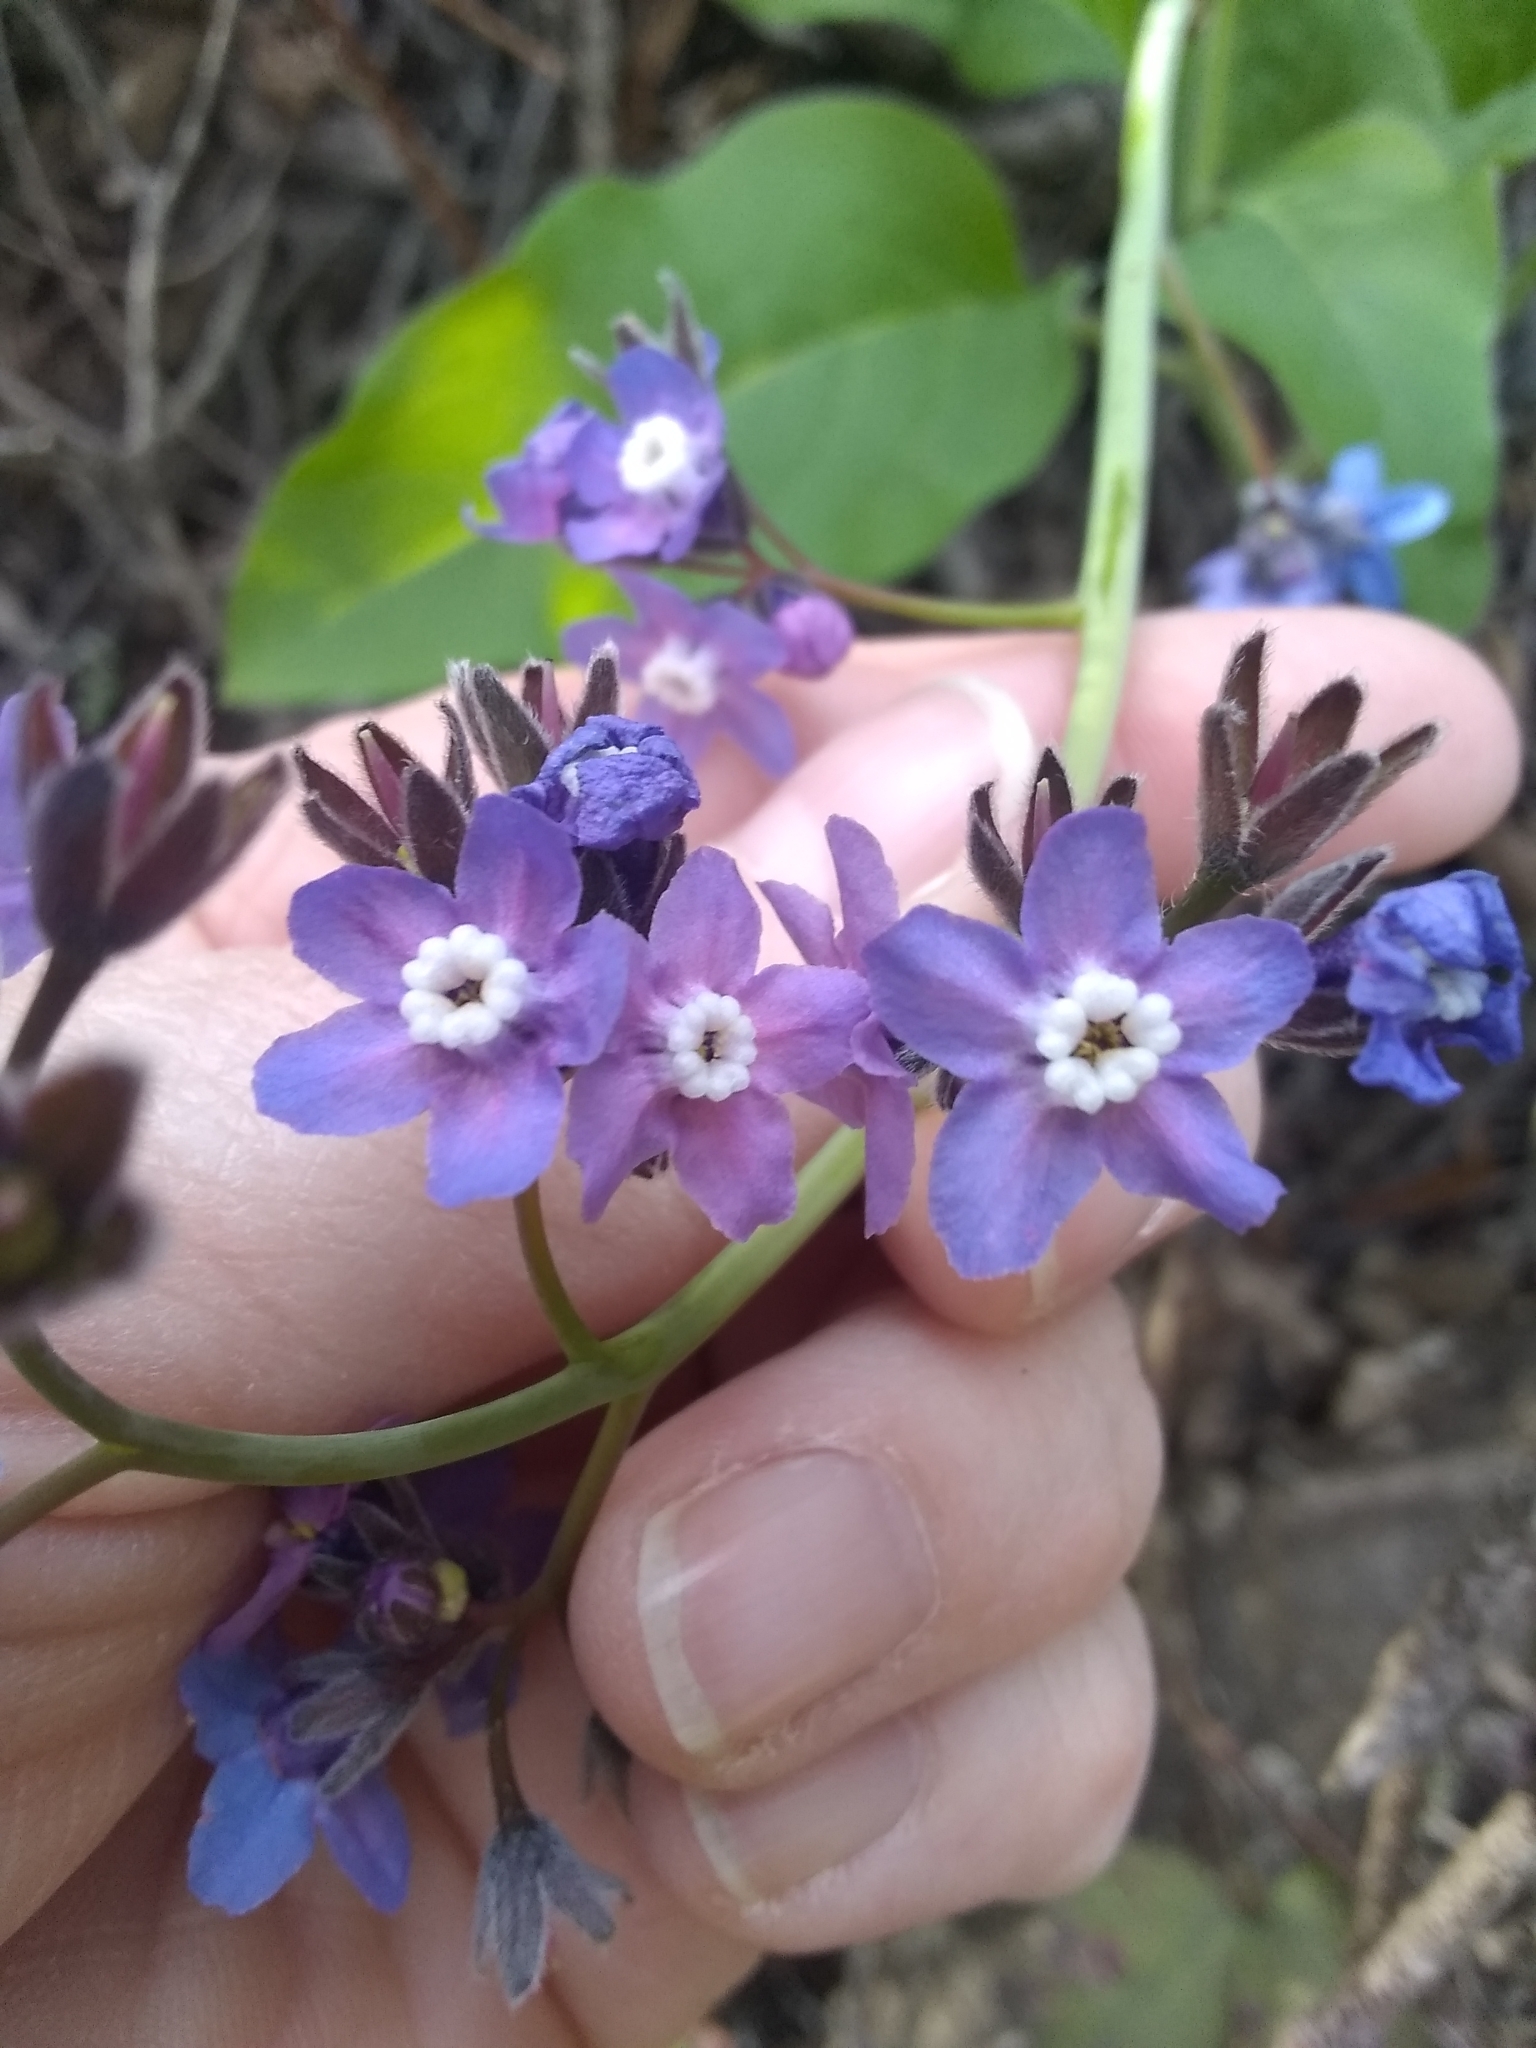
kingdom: Plantae
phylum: Tracheophyta
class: Magnoliopsida
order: Boraginales
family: Boraginaceae
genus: Adelinia
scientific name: Adelinia grande
